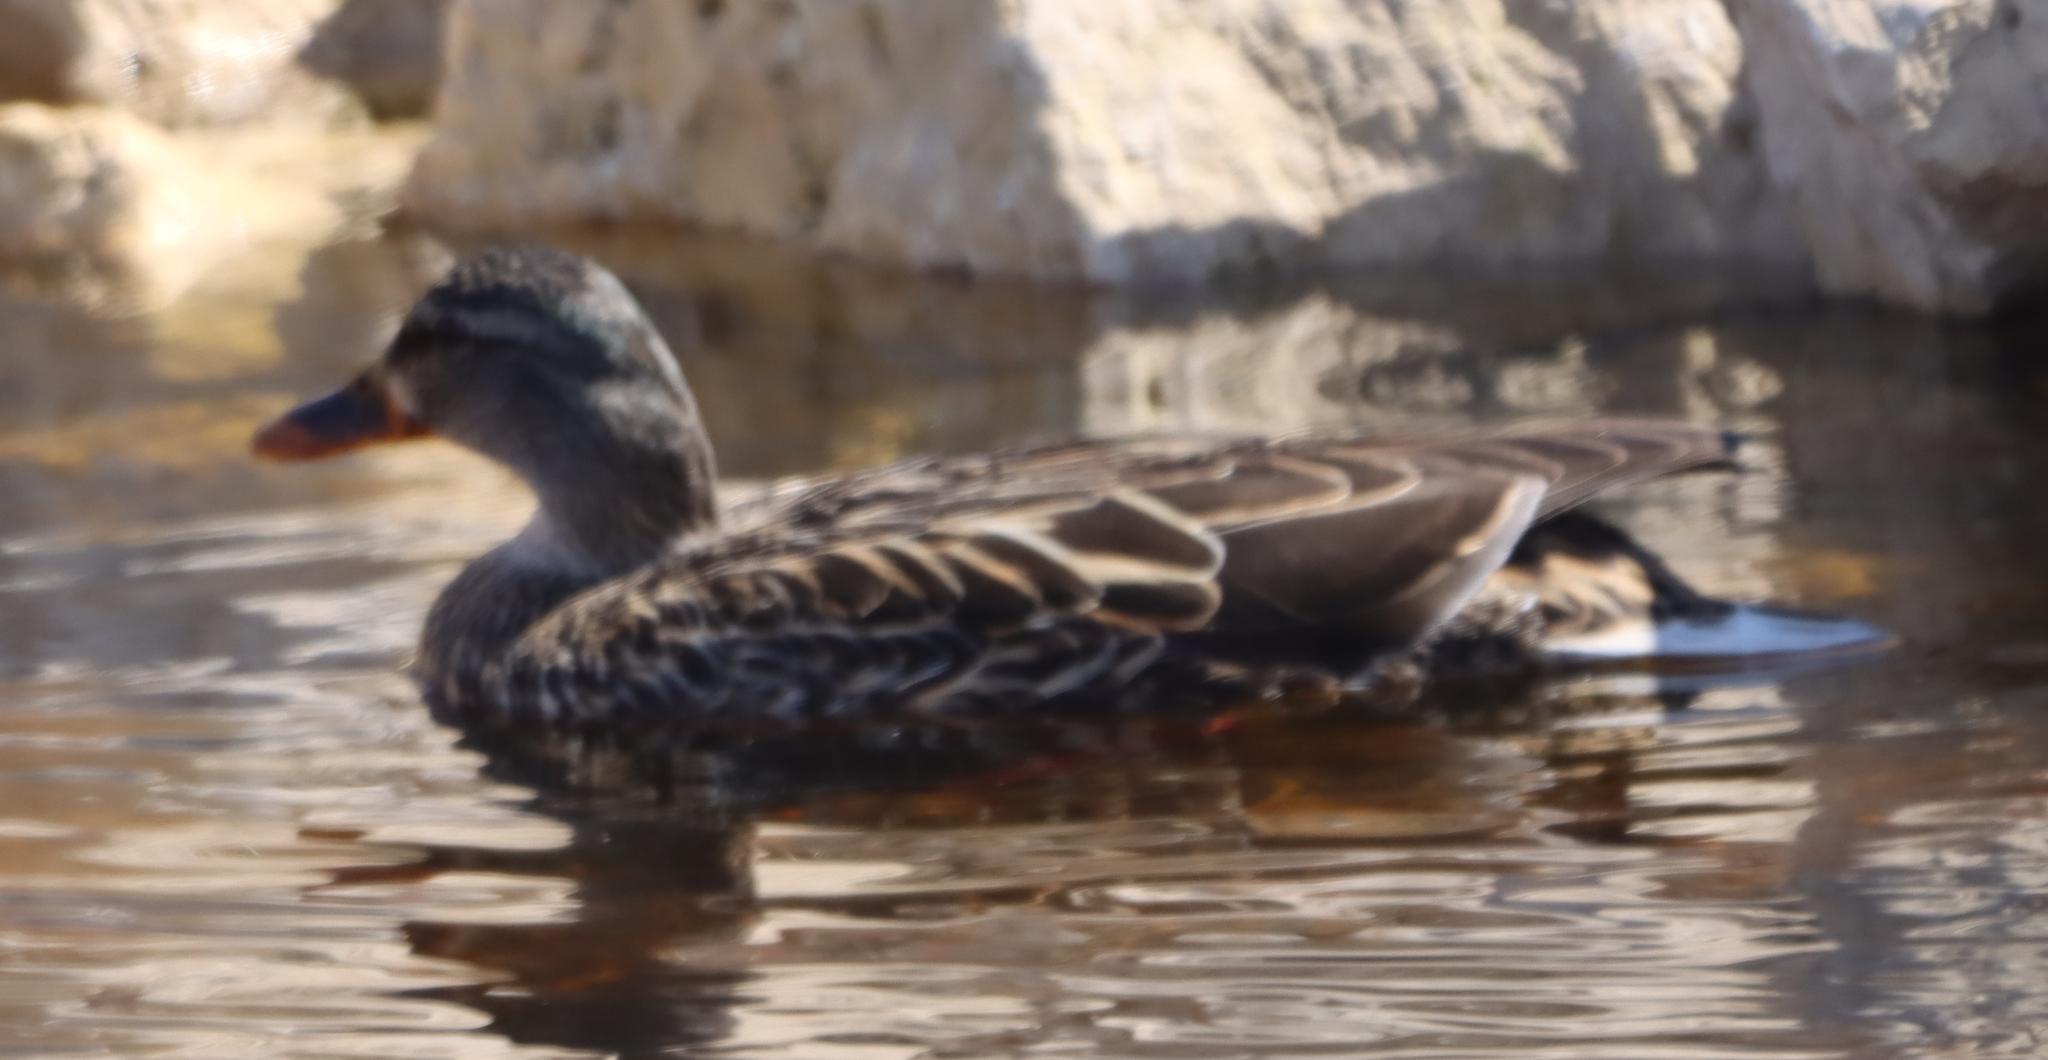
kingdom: Animalia
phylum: Chordata
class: Aves
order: Anseriformes
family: Anatidae
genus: Anas
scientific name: Anas platyrhynchos
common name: Mallard
